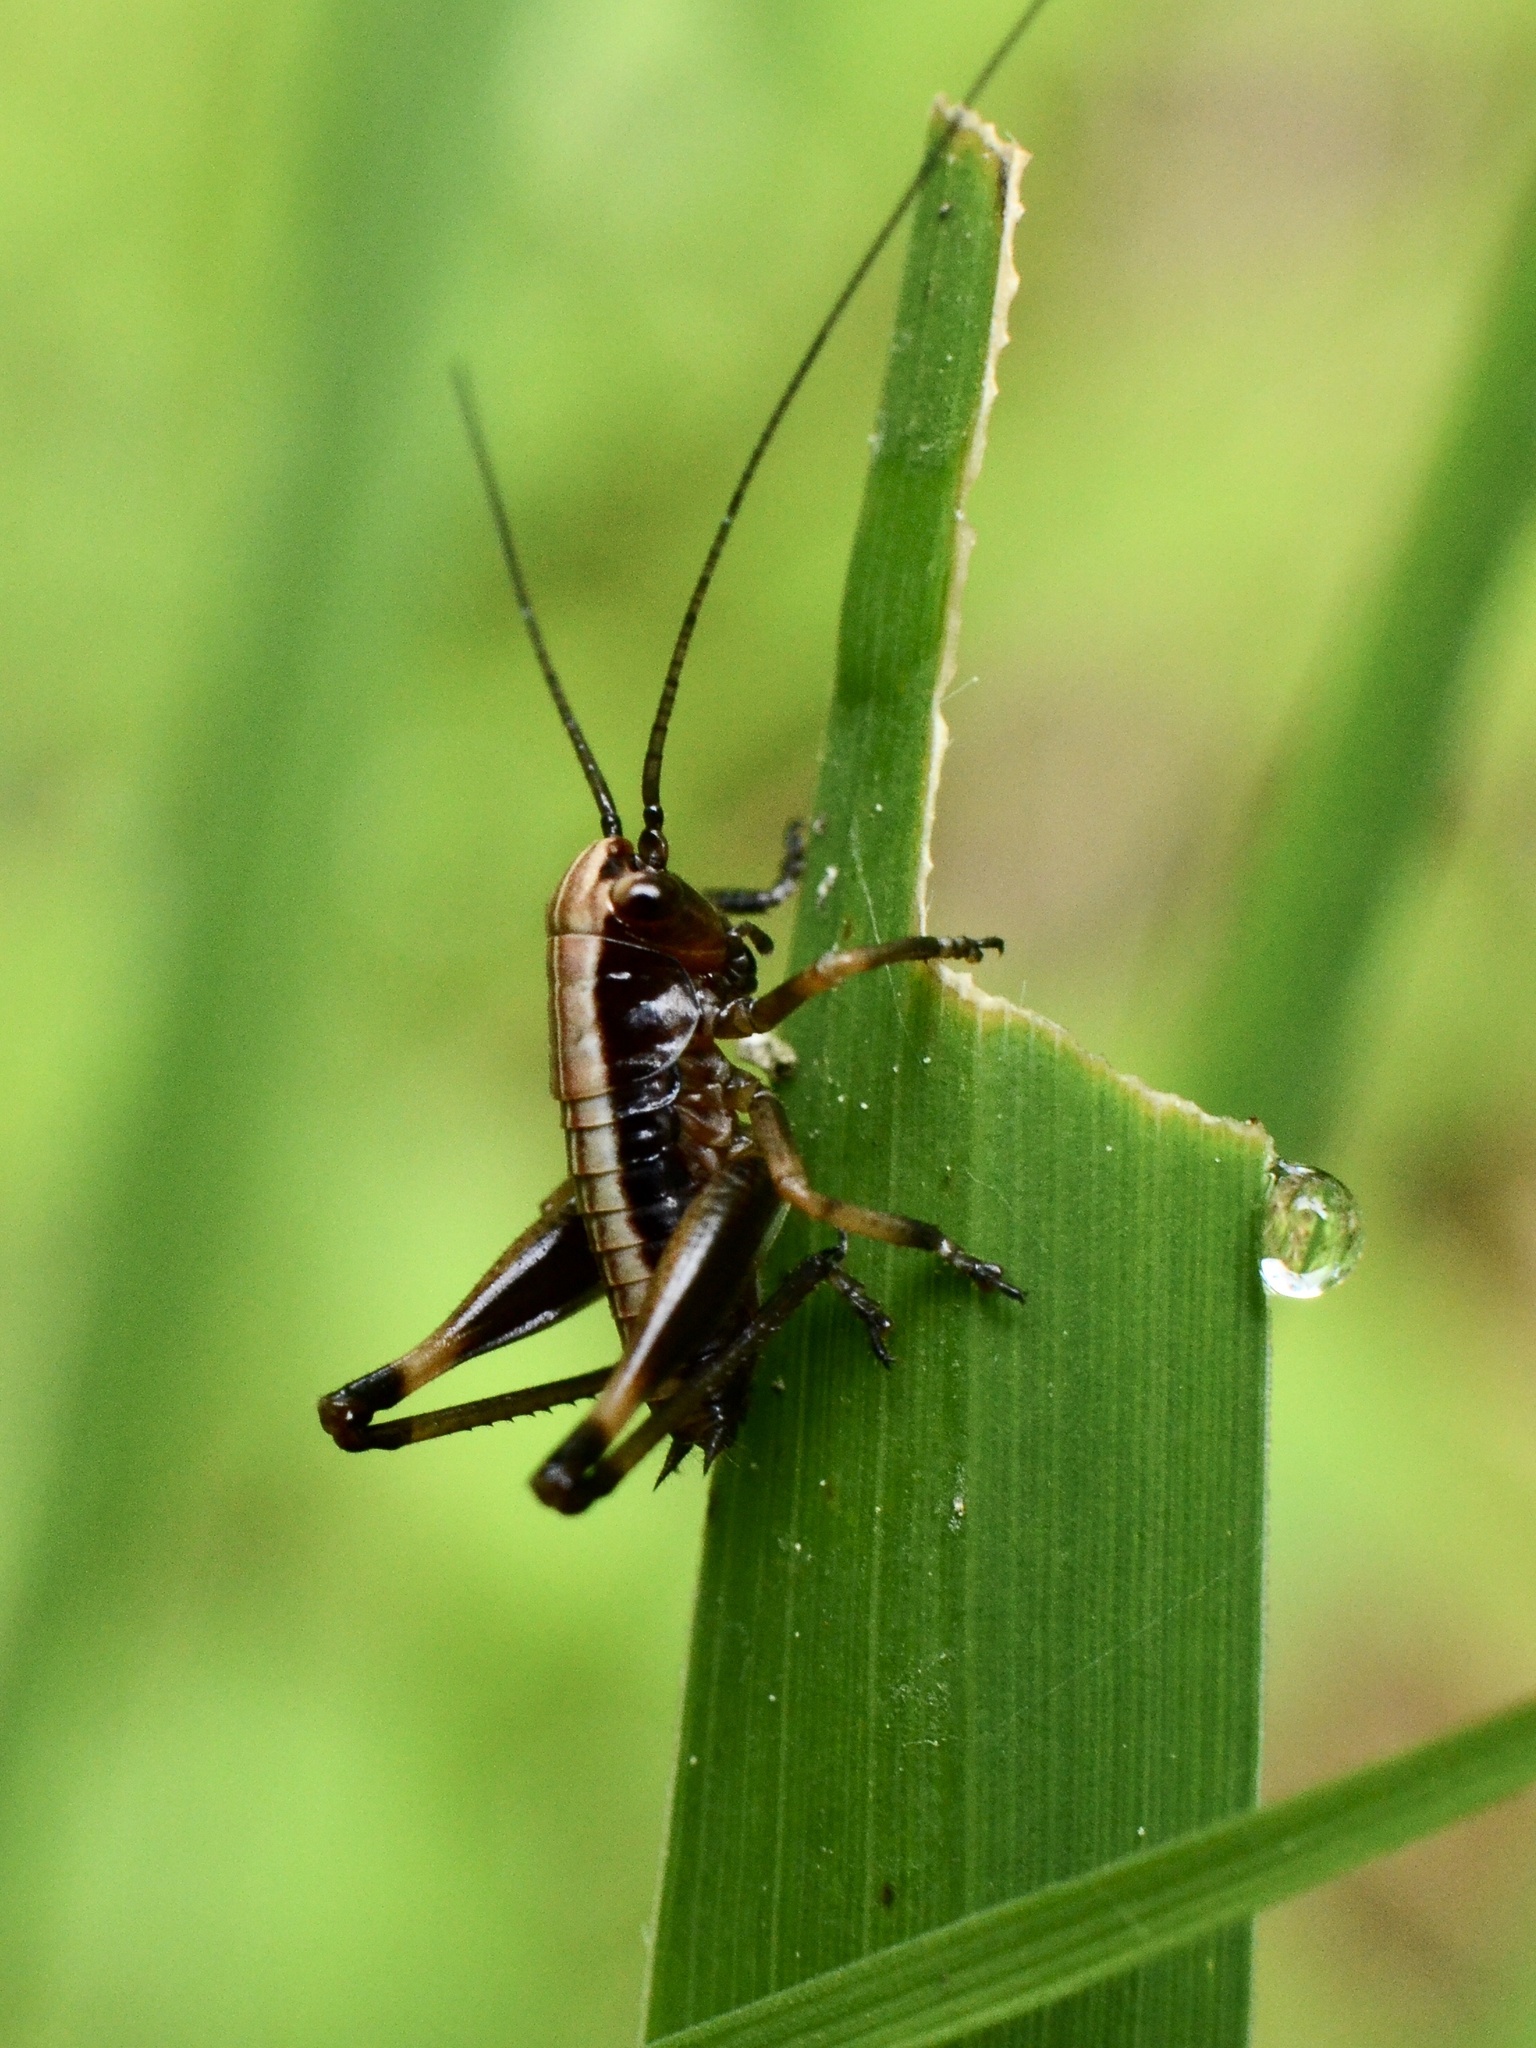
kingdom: Animalia
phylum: Arthropoda
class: Insecta
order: Orthoptera
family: Tettigoniidae
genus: Pholidoptera
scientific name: Pholidoptera griseoaptera
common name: Dark bush-cricket
